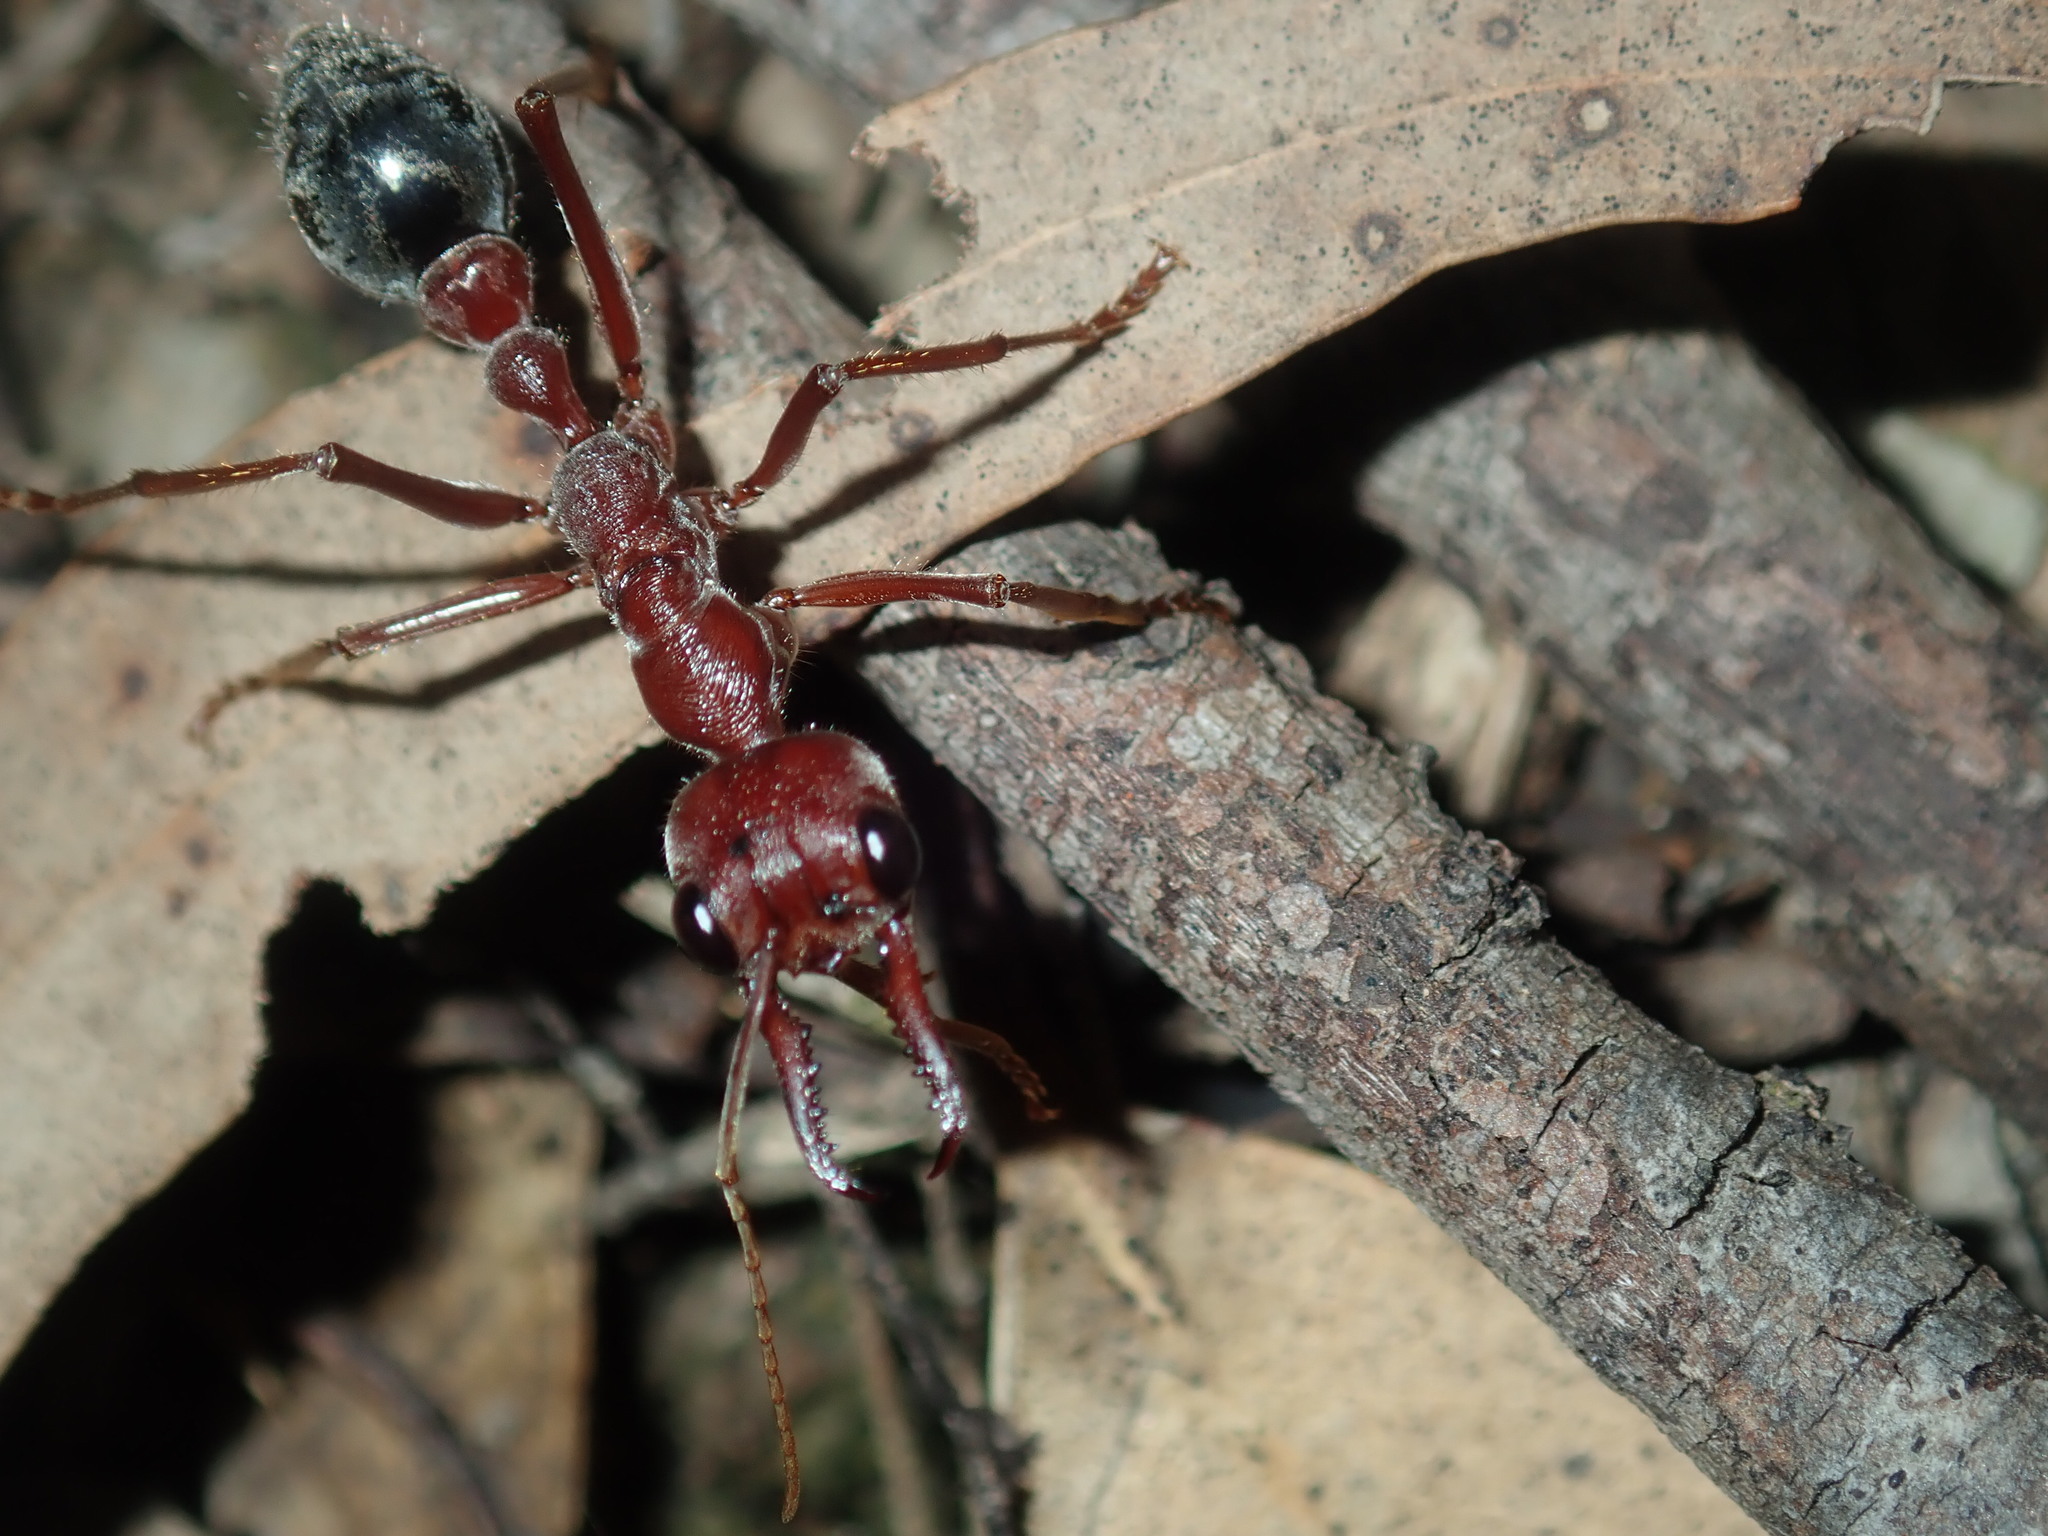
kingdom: Animalia
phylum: Arthropoda
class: Insecta
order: Hymenoptera
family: Formicidae
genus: Myrmecia
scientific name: Myrmecia brevinoda
